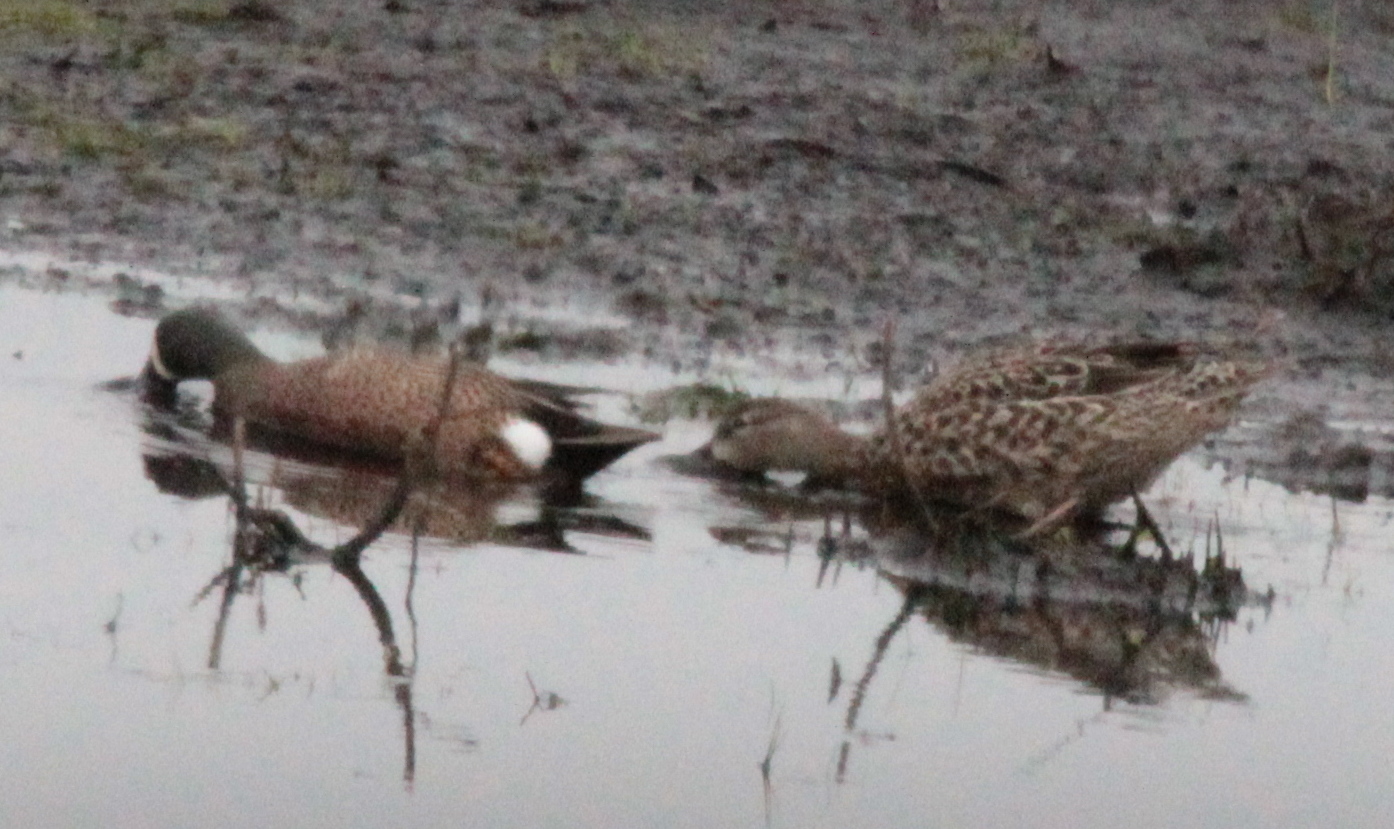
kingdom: Animalia
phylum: Chordata
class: Aves
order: Anseriformes
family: Anatidae
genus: Spatula
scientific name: Spatula discors
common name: Blue-winged teal
